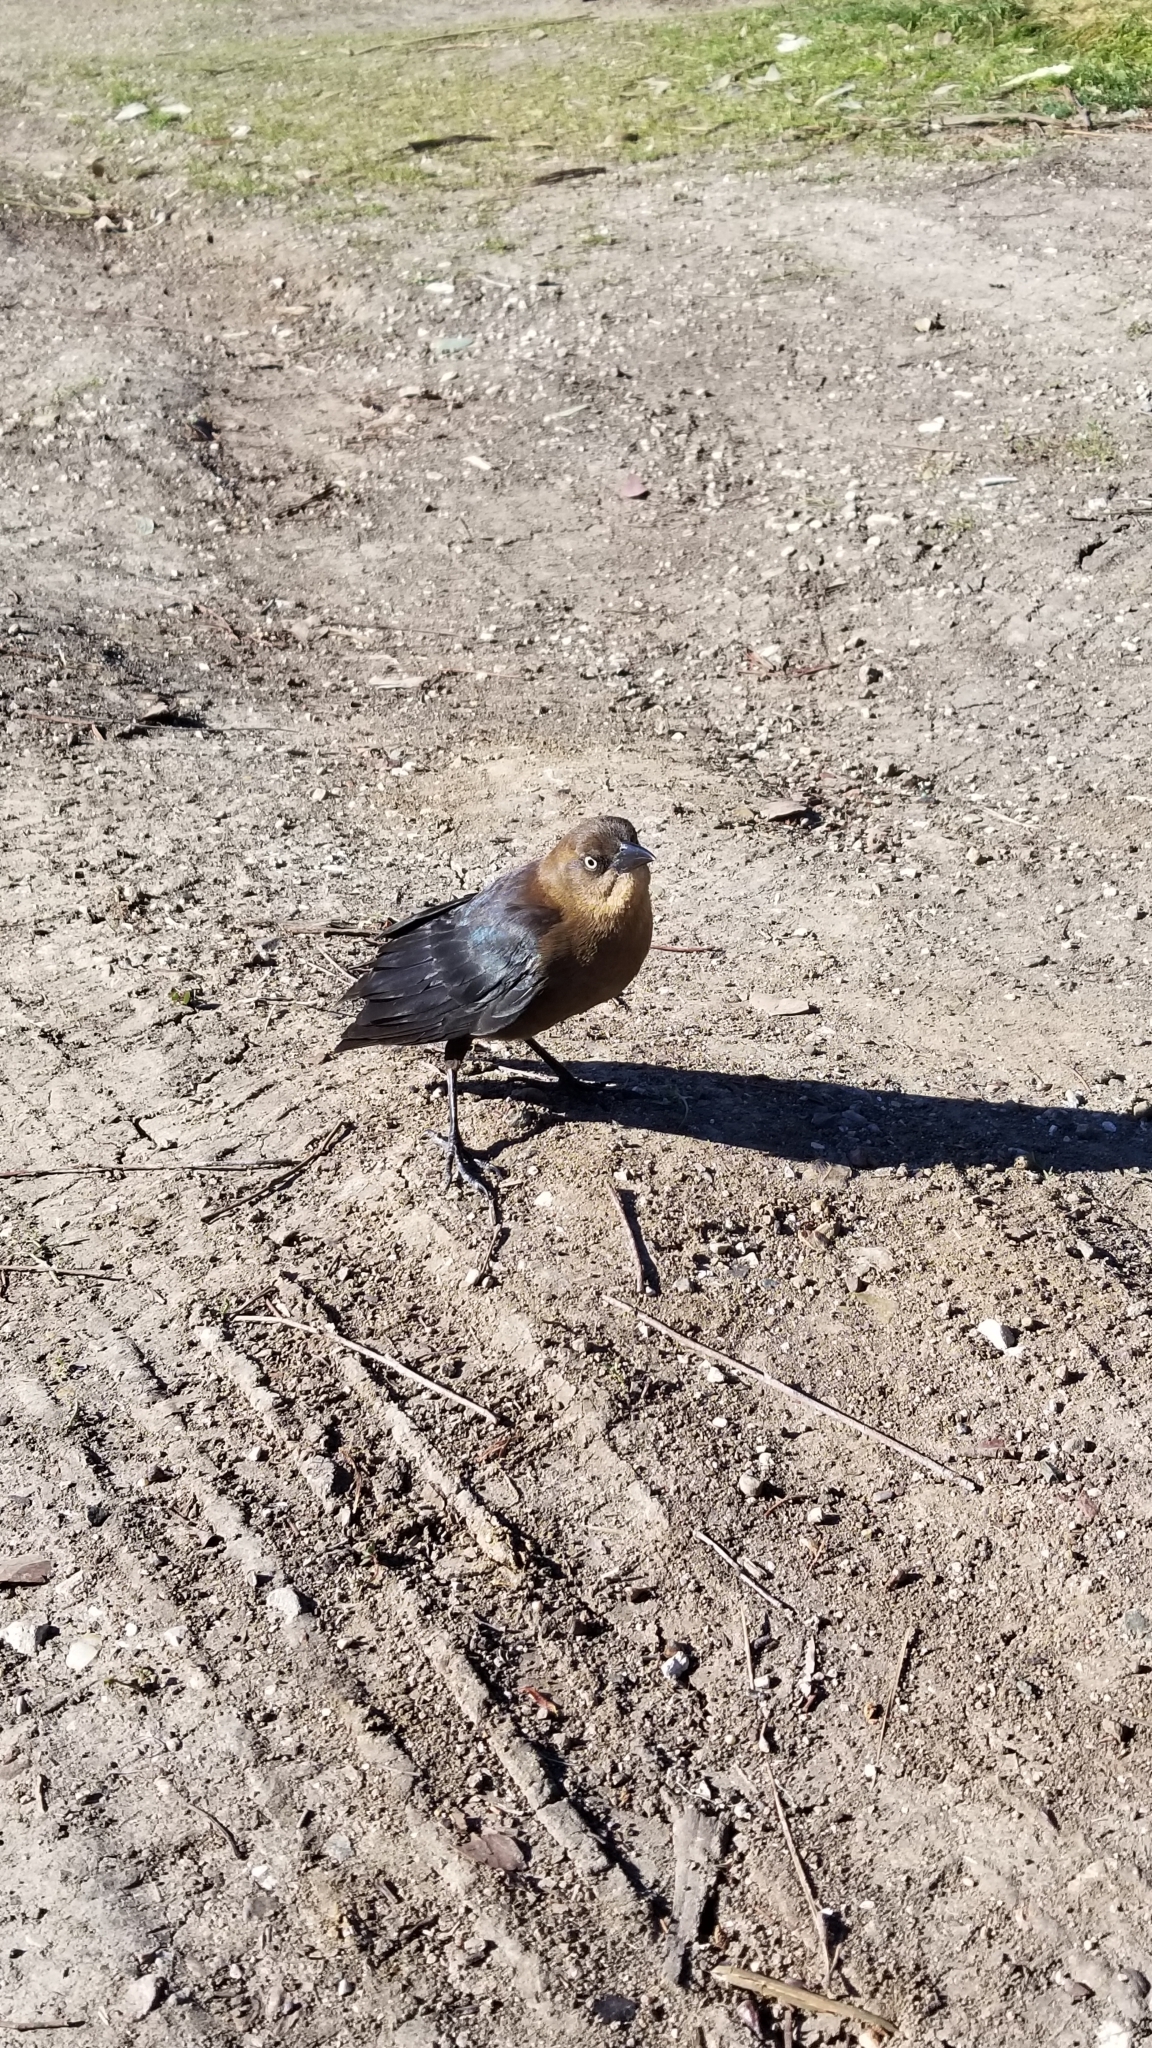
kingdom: Animalia
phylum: Chordata
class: Aves
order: Passeriformes
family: Icteridae
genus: Quiscalus
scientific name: Quiscalus mexicanus
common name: Great-tailed grackle
